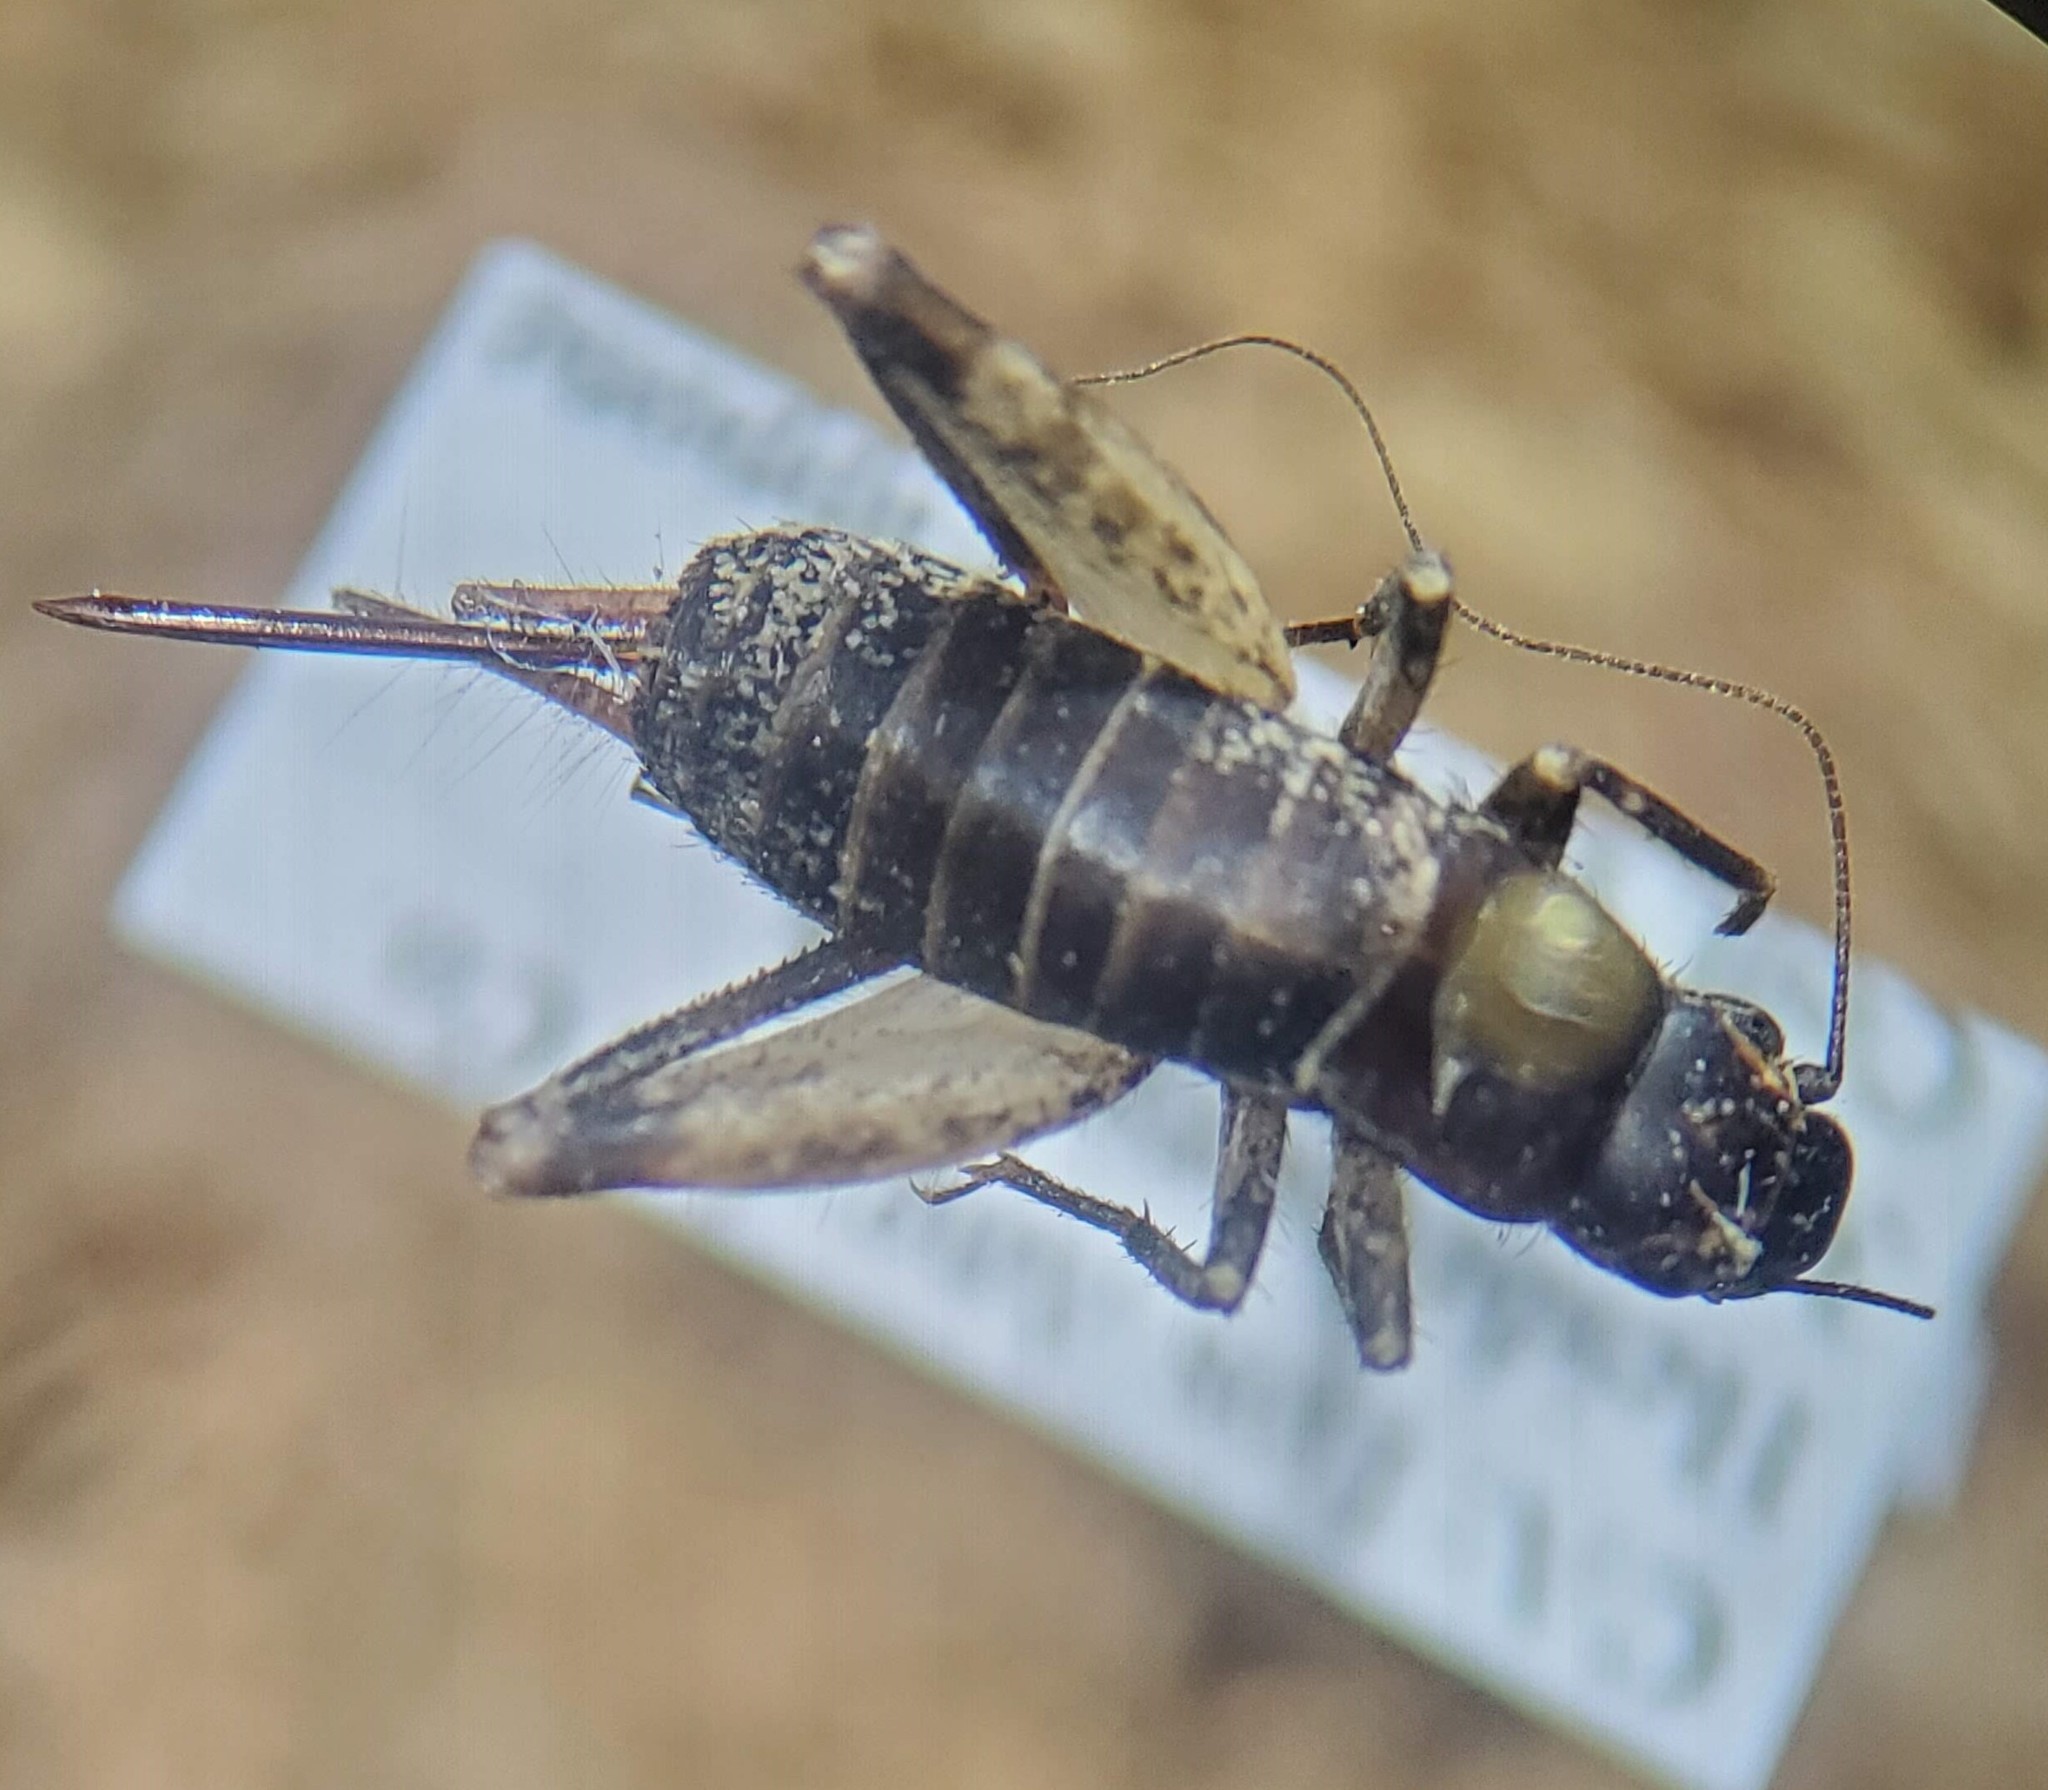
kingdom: Animalia
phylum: Arthropoda
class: Insecta
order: Orthoptera
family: Mogoplistidae
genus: Hoplosphyrum
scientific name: Hoplosphyrum boreale
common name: Long-winged scaly cricket
